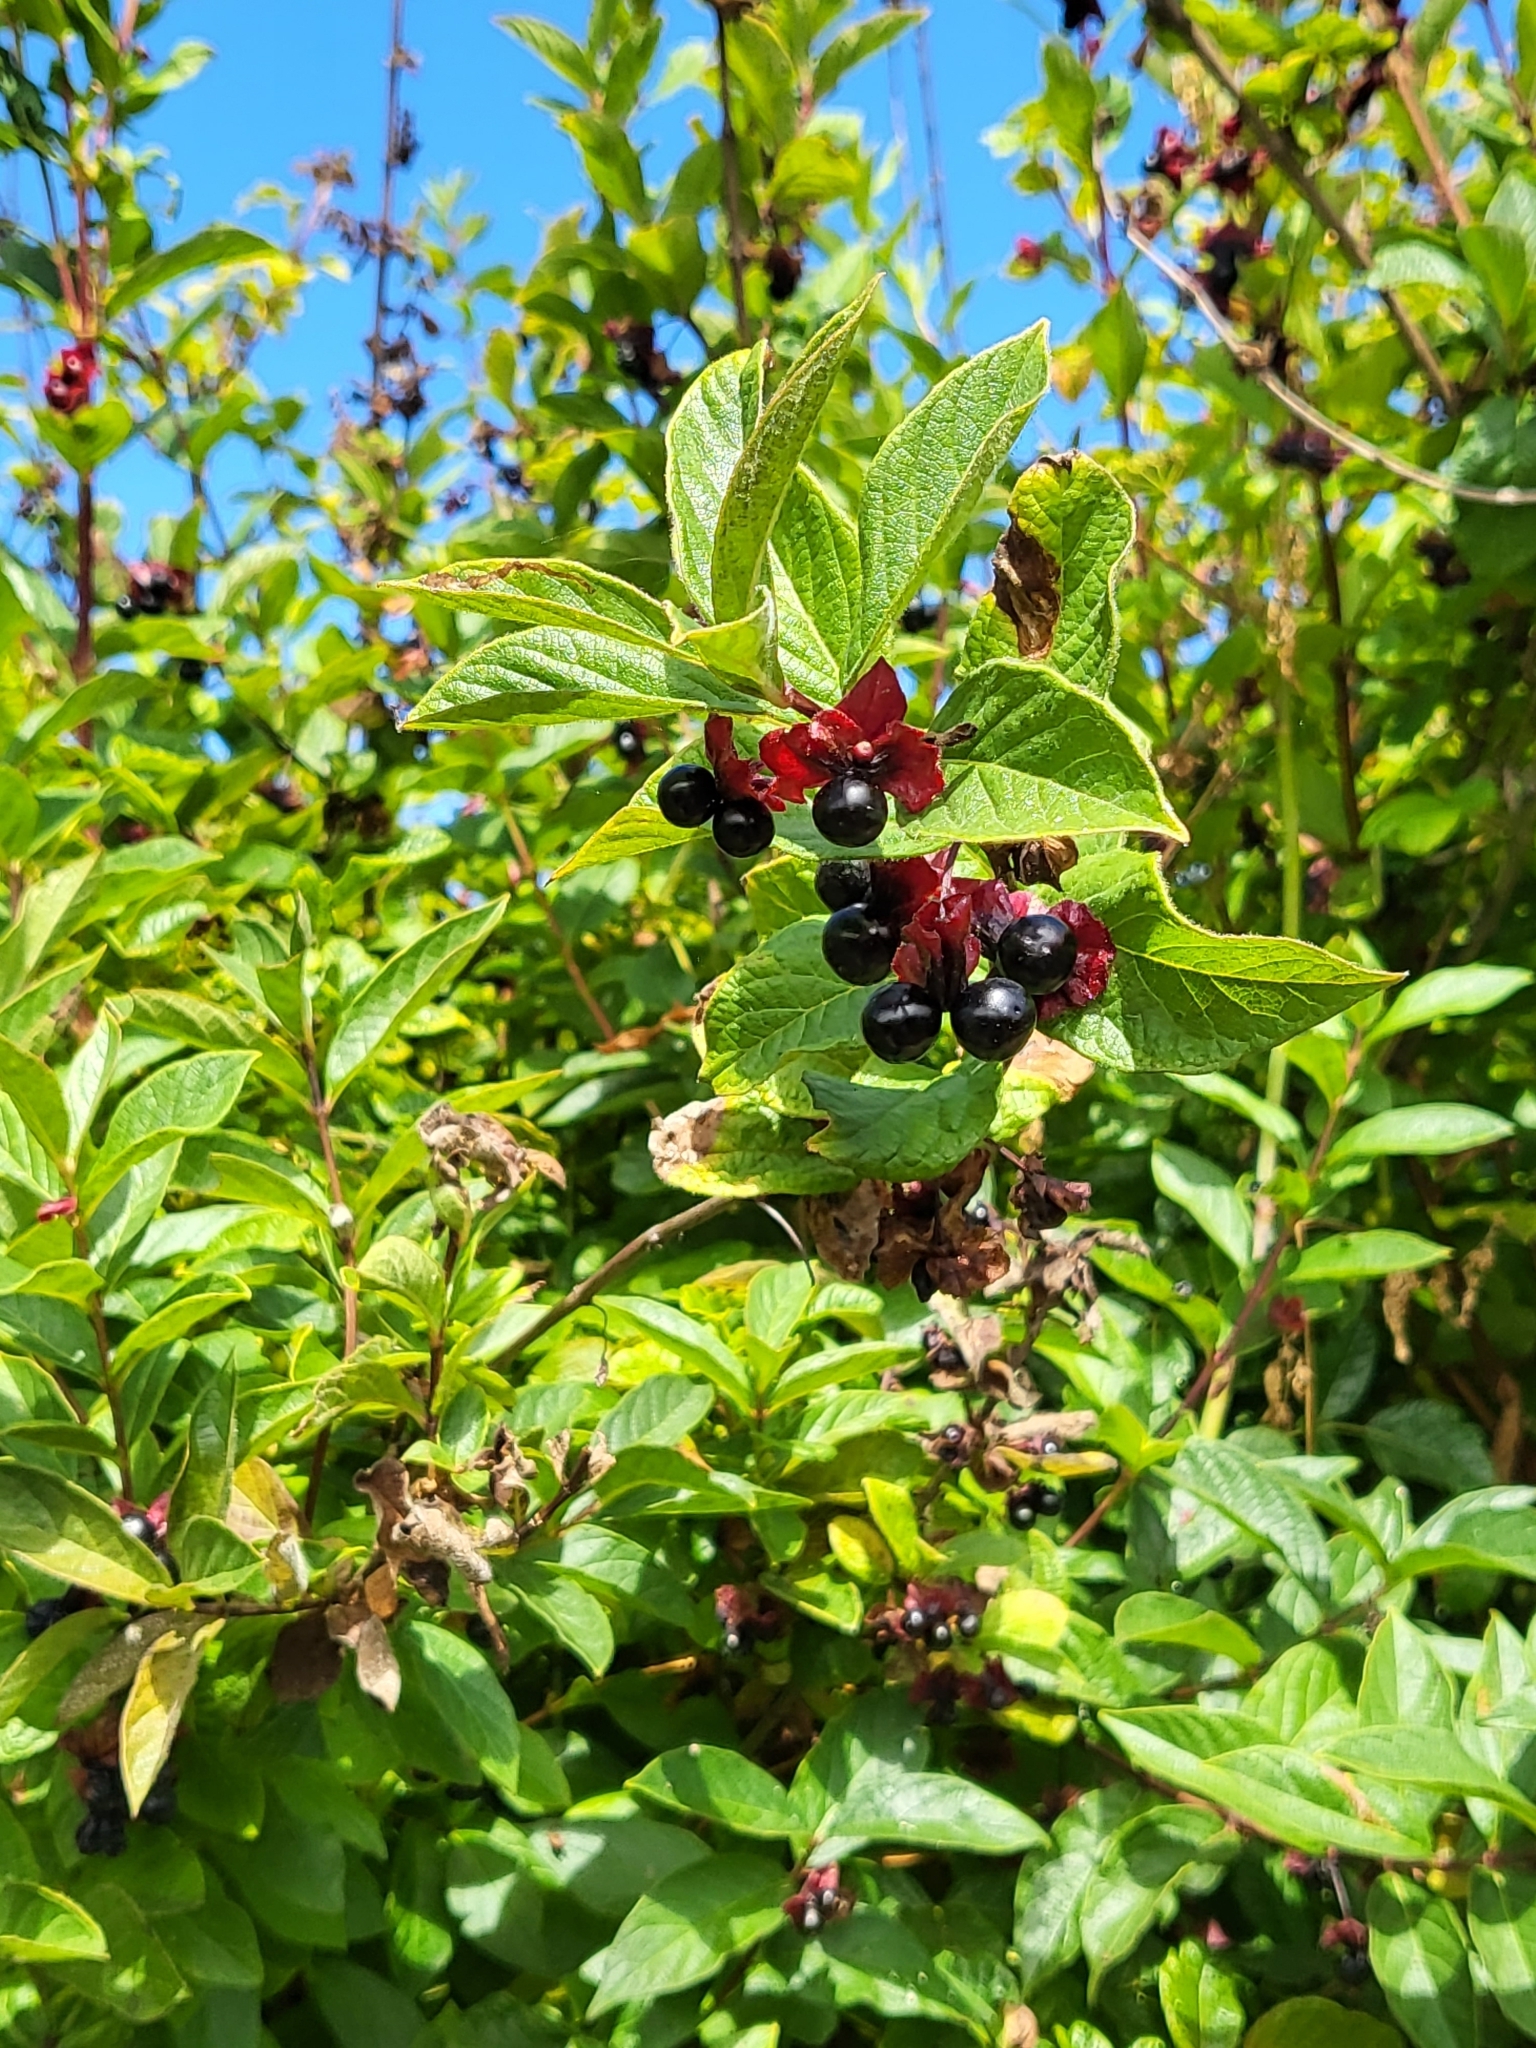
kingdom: Plantae
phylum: Tracheophyta
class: Magnoliopsida
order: Dipsacales
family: Caprifoliaceae
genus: Lonicera
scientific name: Lonicera involucrata
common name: Californian honeysuckle
